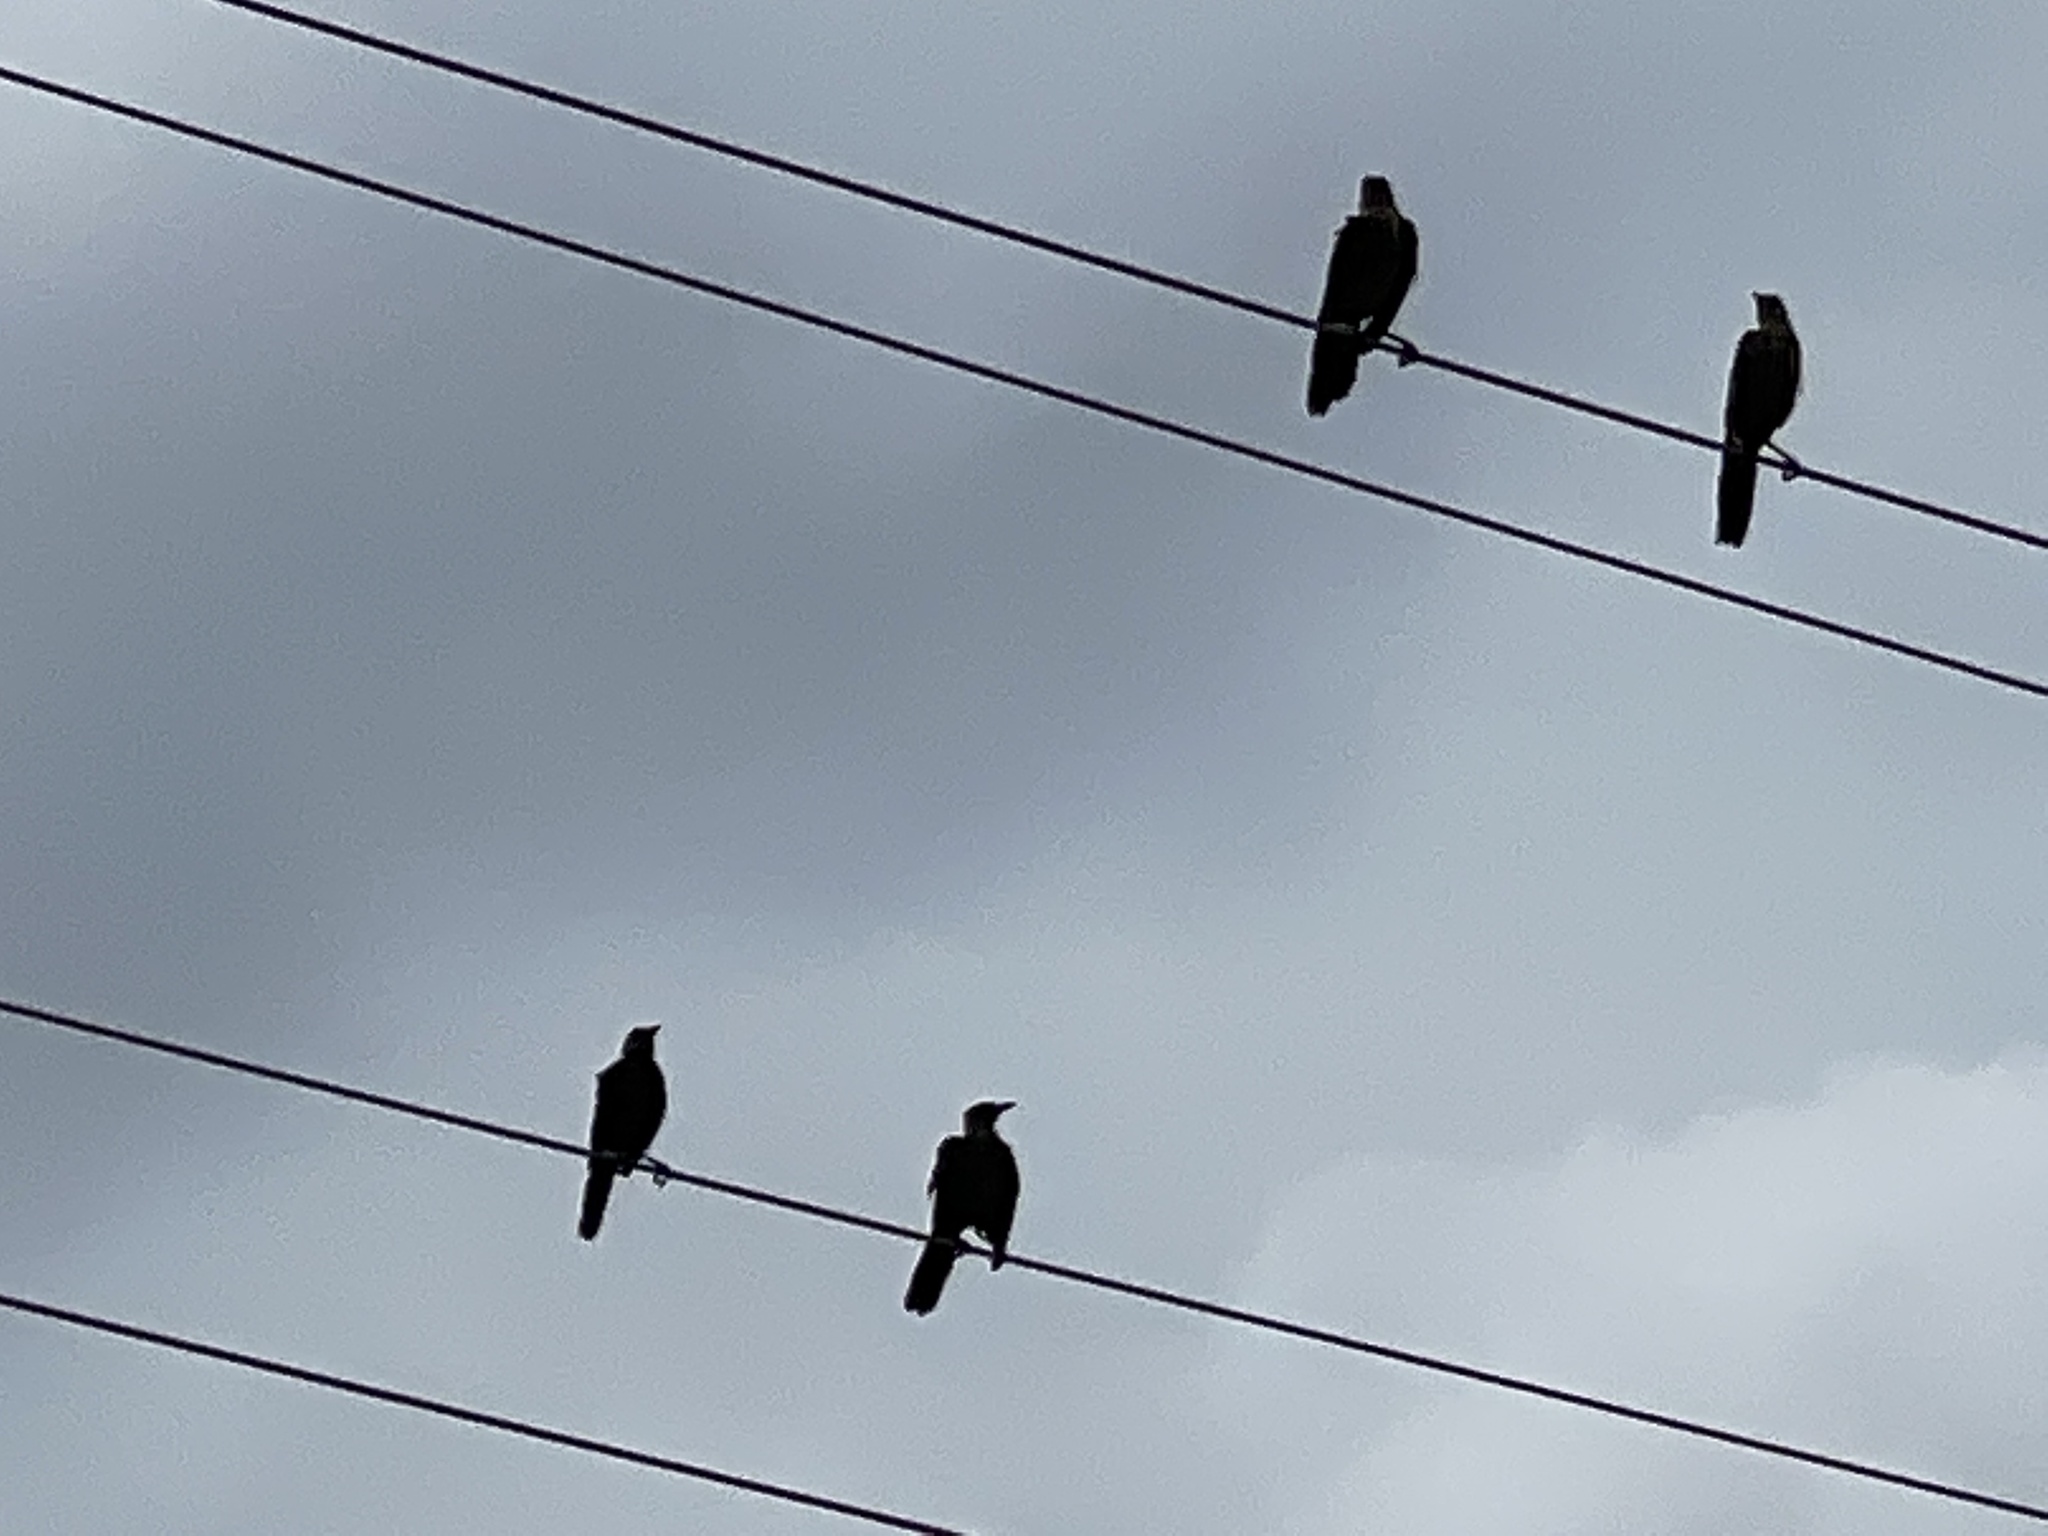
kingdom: Animalia
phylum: Chordata
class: Aves
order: Passeriformes
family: Icteridae
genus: Quiscalus
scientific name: Quiscalus mexicanus
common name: Great-tailed grackle
